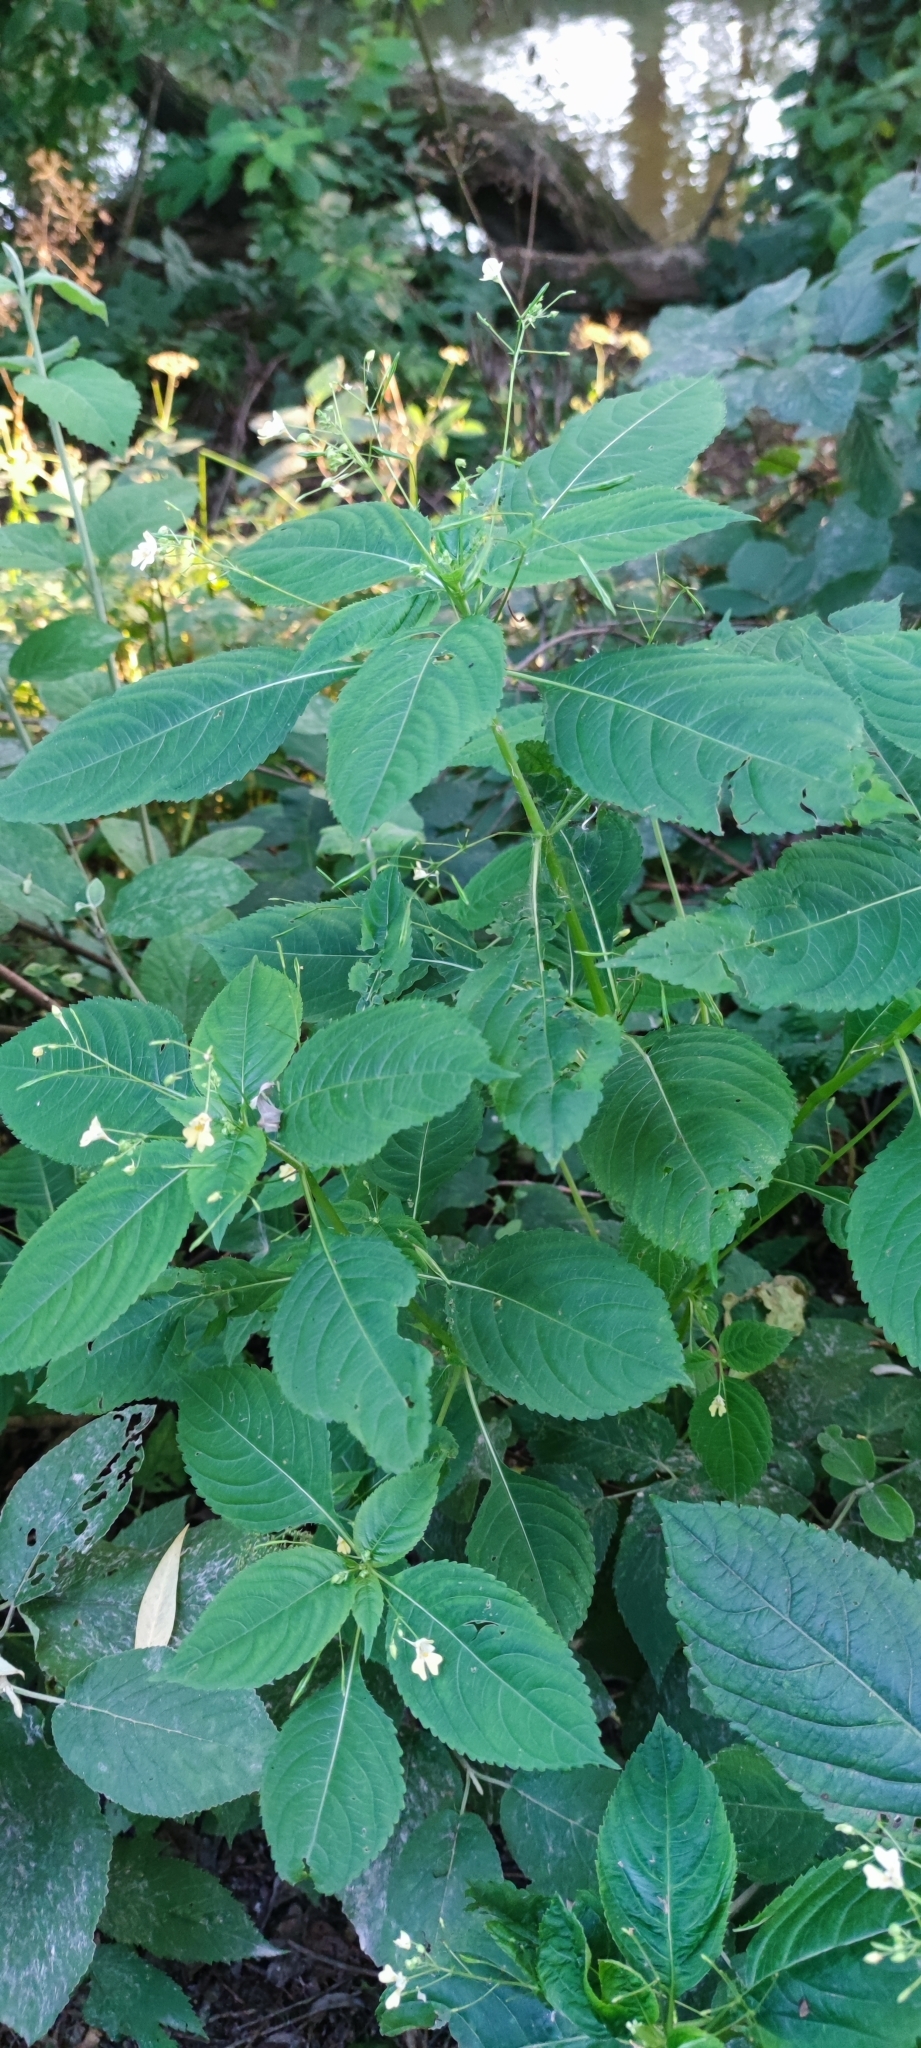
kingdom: Plantae
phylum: Tracheophyta
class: Magnoliopsida
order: Ericales
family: Balsaminaceae
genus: Impatiens
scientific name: Impatiens parviflora
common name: Small balsam
